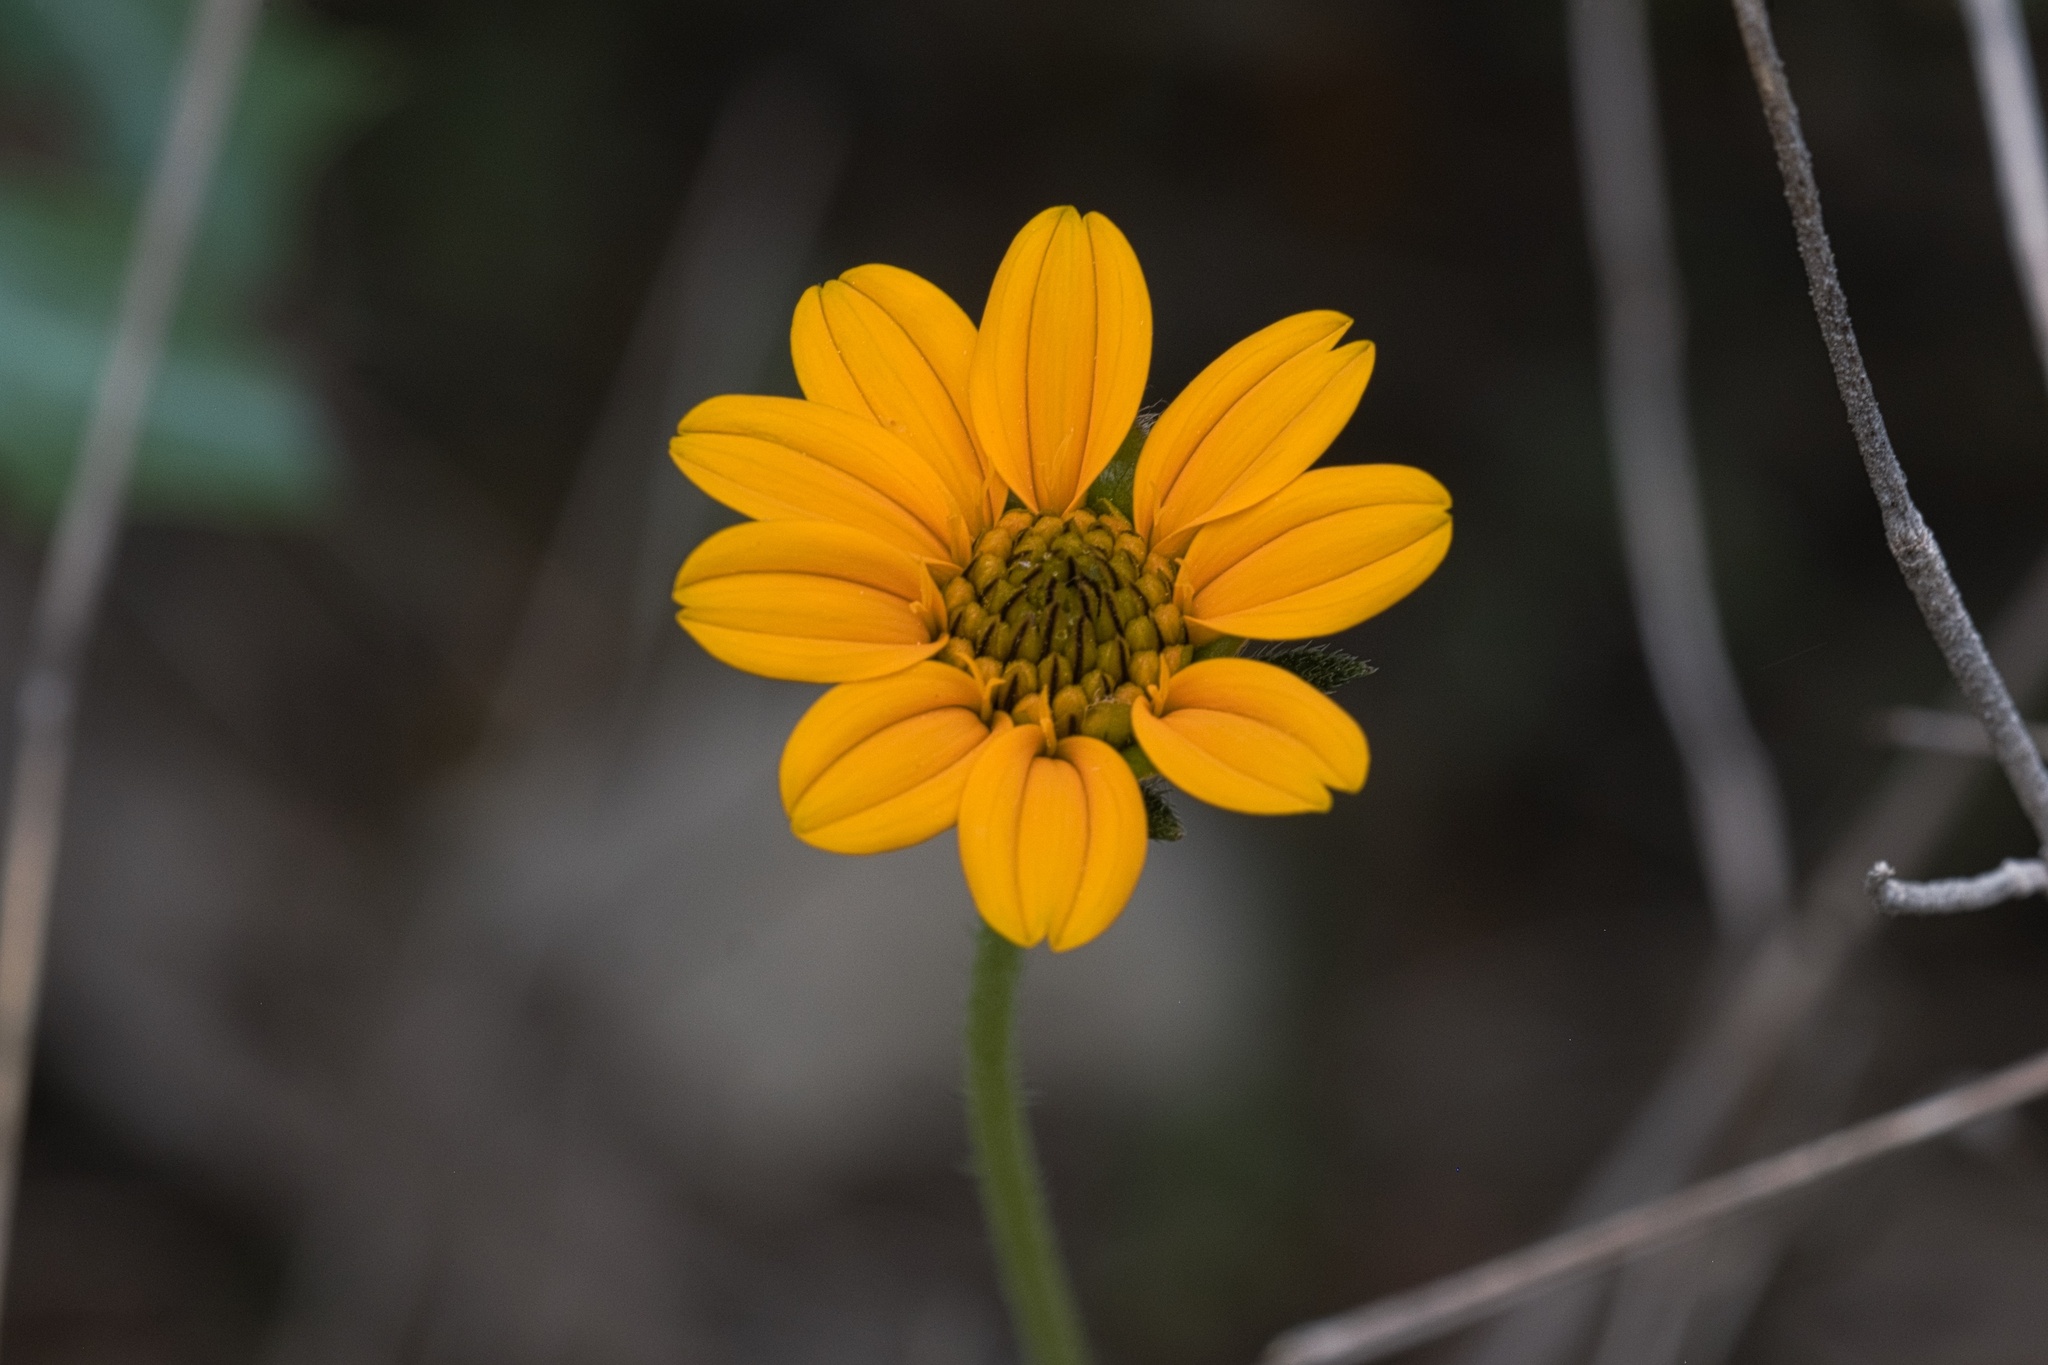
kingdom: Plantae
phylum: Tracheophyta
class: Magnoliopsida
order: Asterales
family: Asteraceae
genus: Wedelia
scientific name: Wedelia acapulcensis
